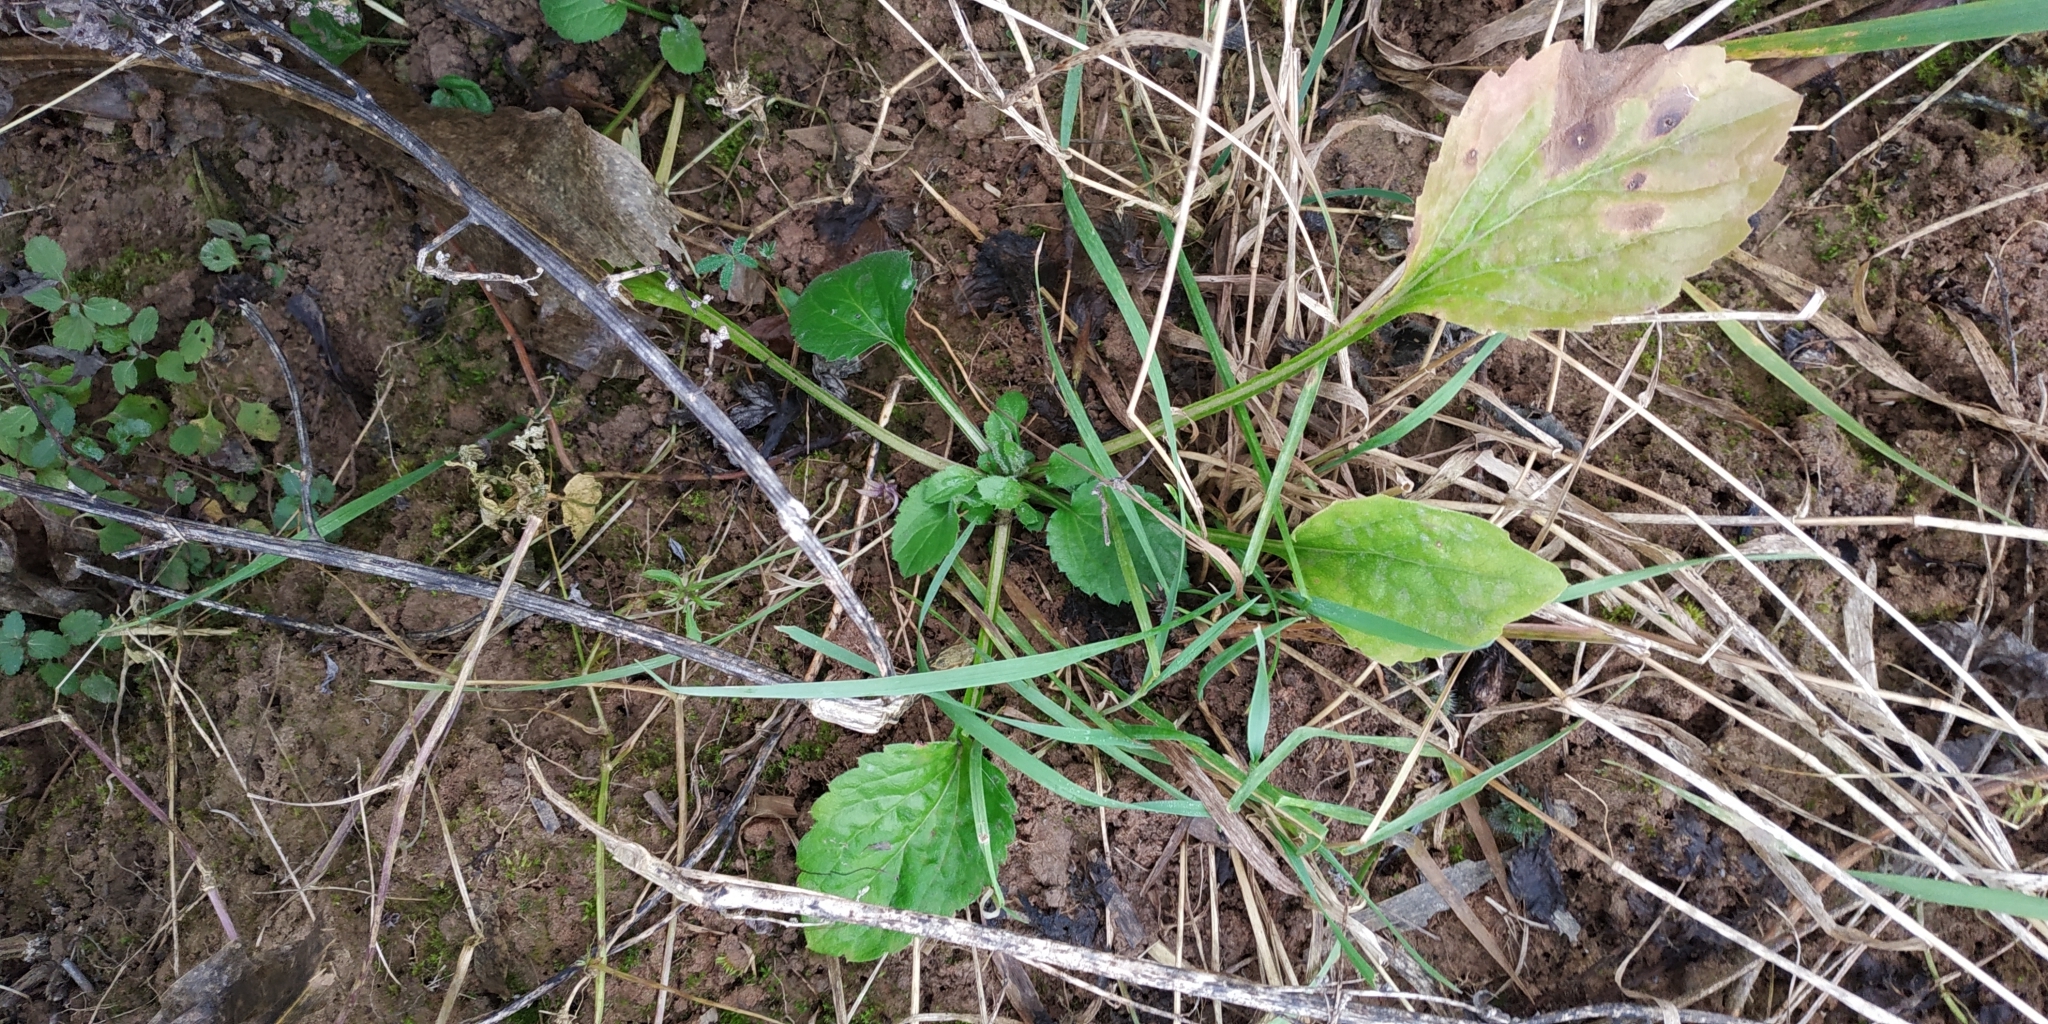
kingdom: Plantae
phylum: Tracheophyta
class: Magnoliopsida
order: Asterales
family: Asteraceae
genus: Erigeron
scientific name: Erigeron annuus
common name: Tall fleabane
